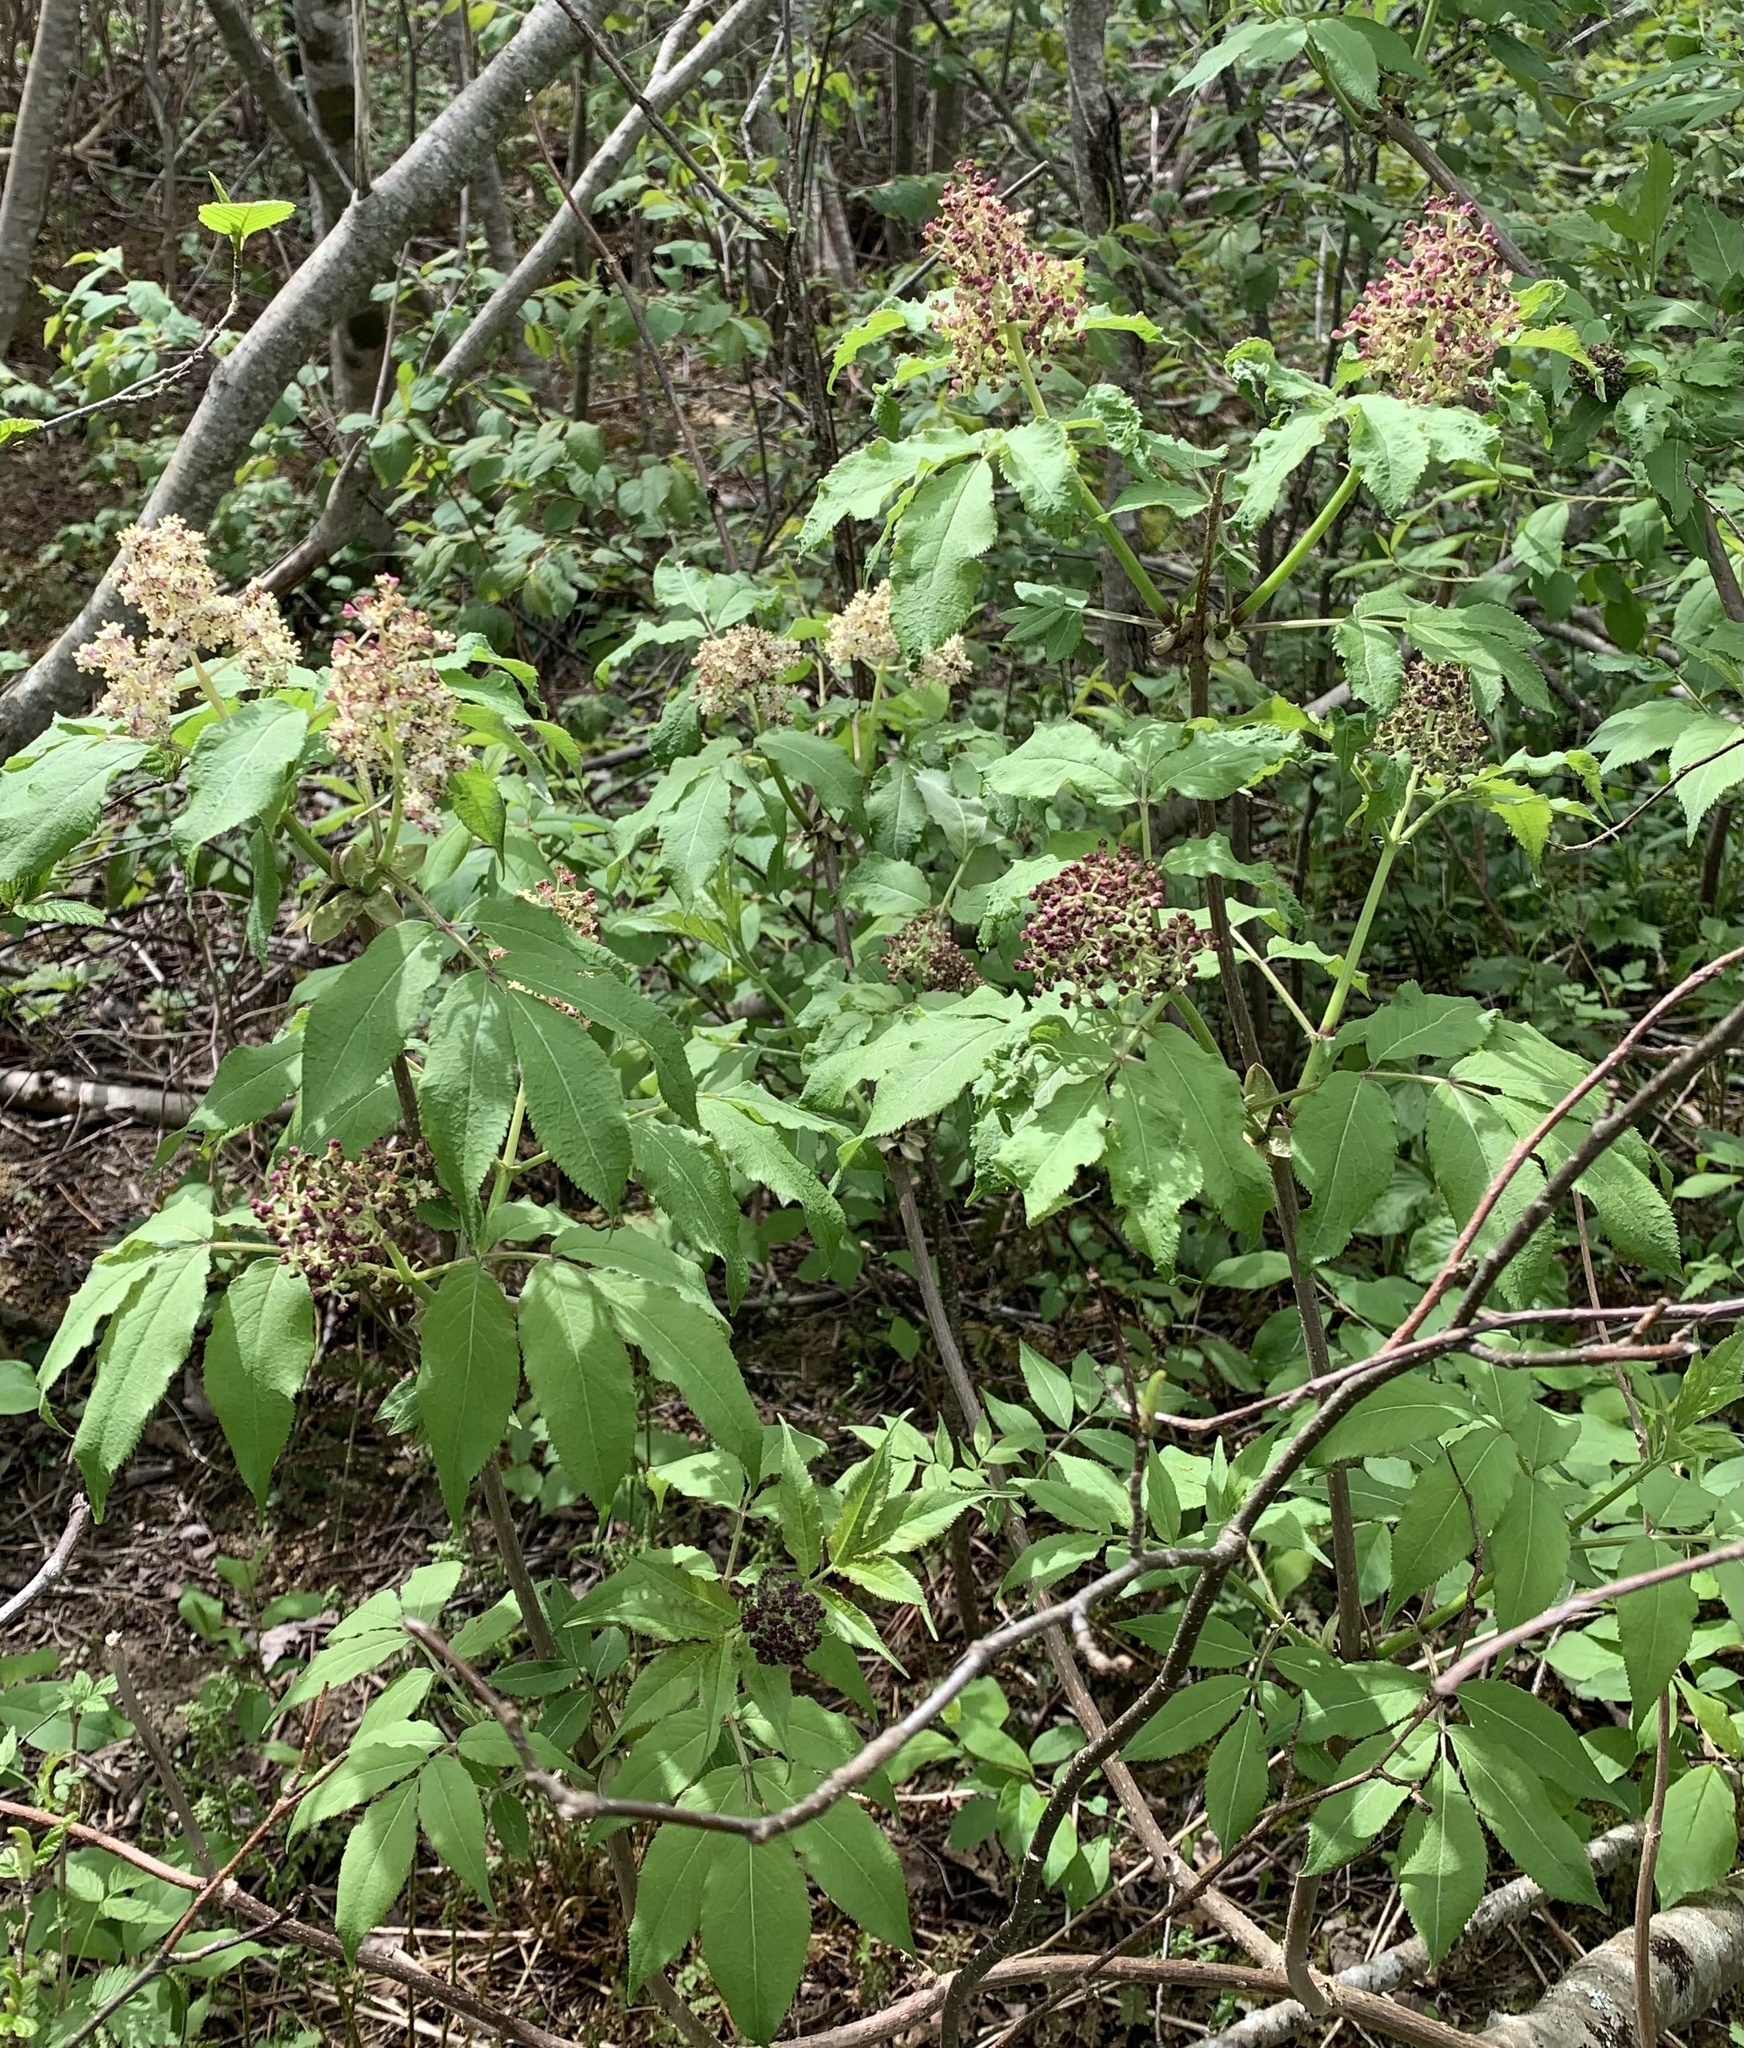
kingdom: Plantae
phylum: Tracheophyta
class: Magnoliopsida
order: Dipsacales
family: Viburnaceae
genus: Sambucus
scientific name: Sambucus racemosa
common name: Red-berried elder
